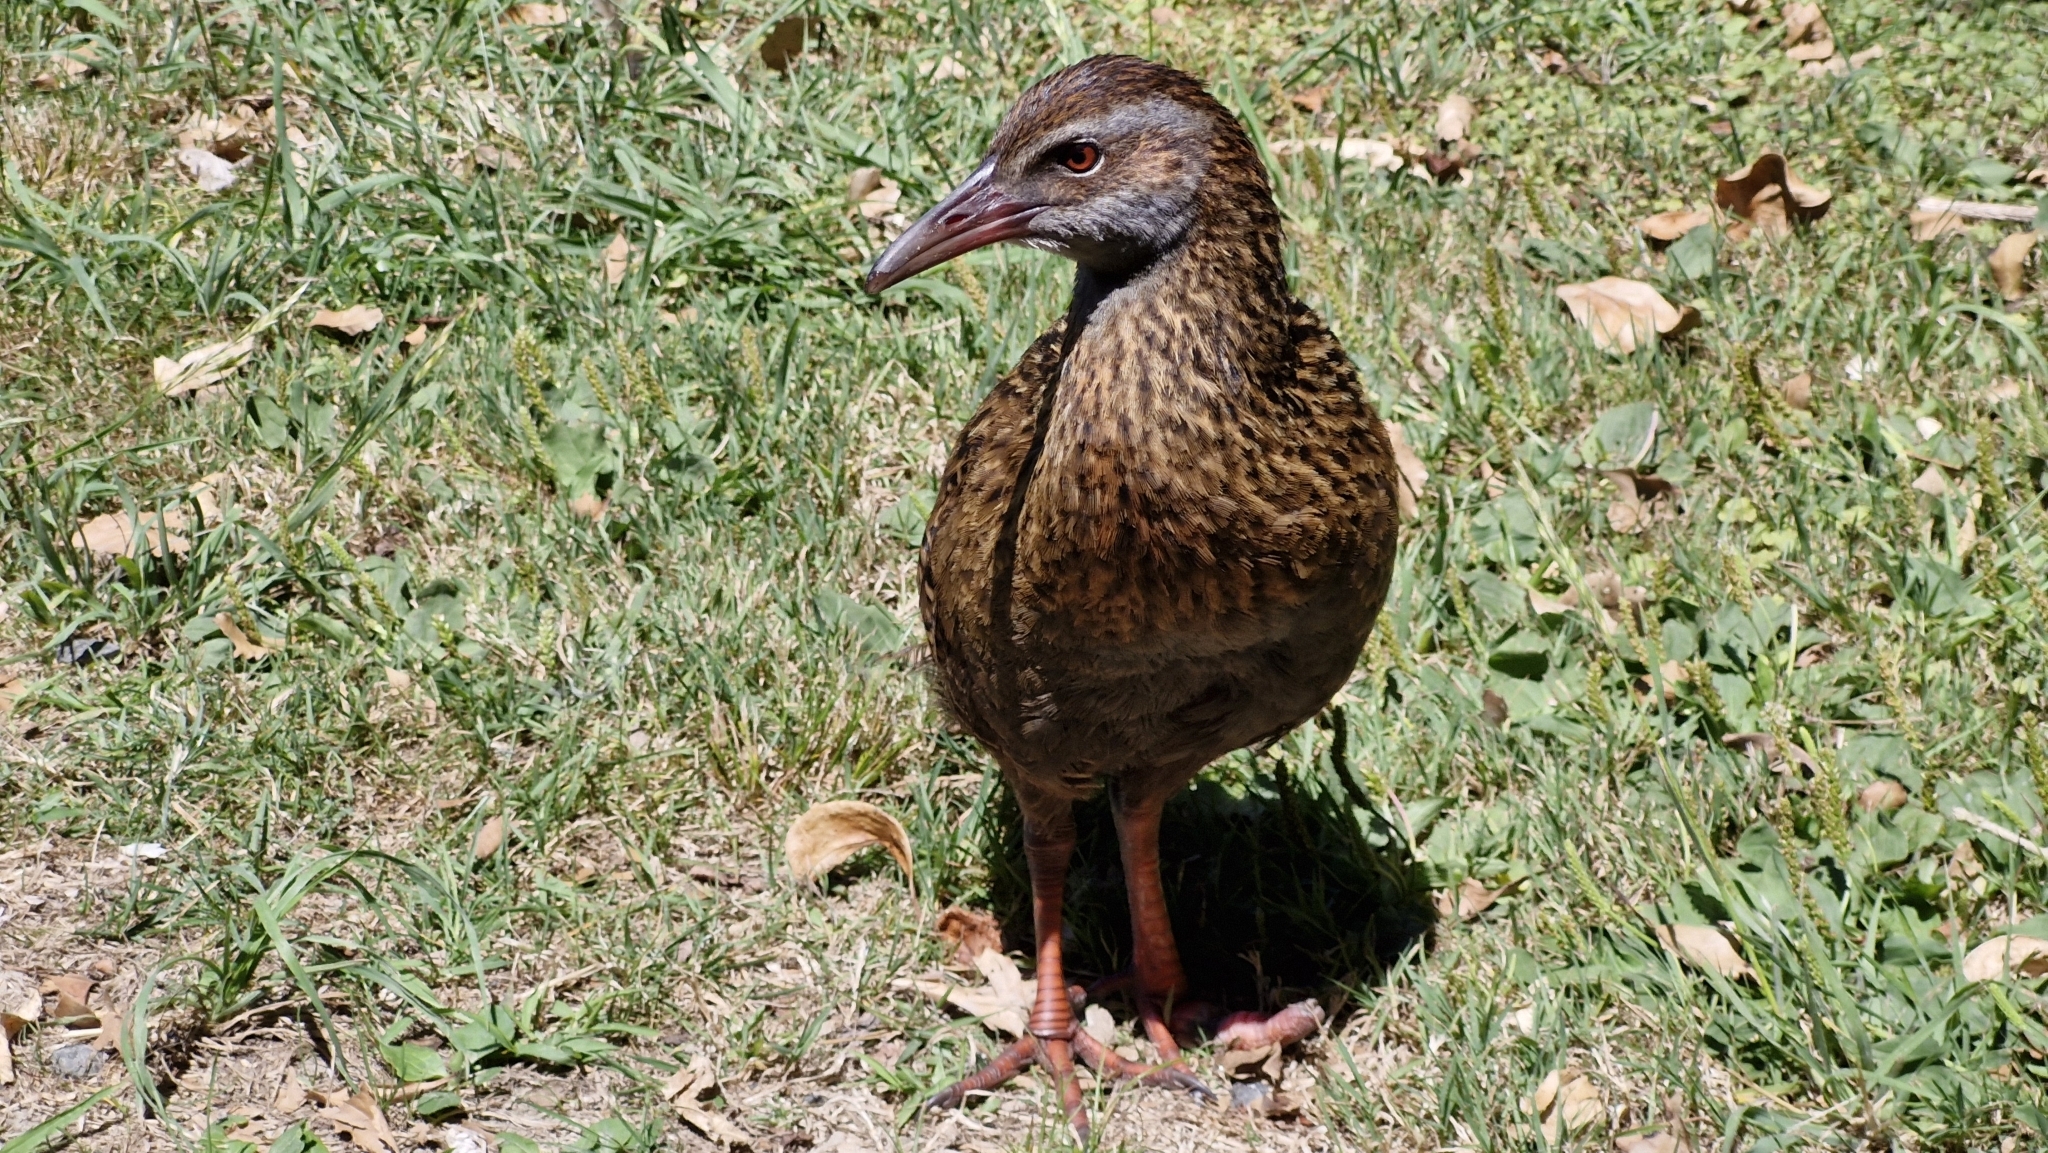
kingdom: Animalia
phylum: Chordata
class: Aves
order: Gruiformes
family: Rallidae
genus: Gallirallus
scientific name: Gallirallus australis
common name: Weka
